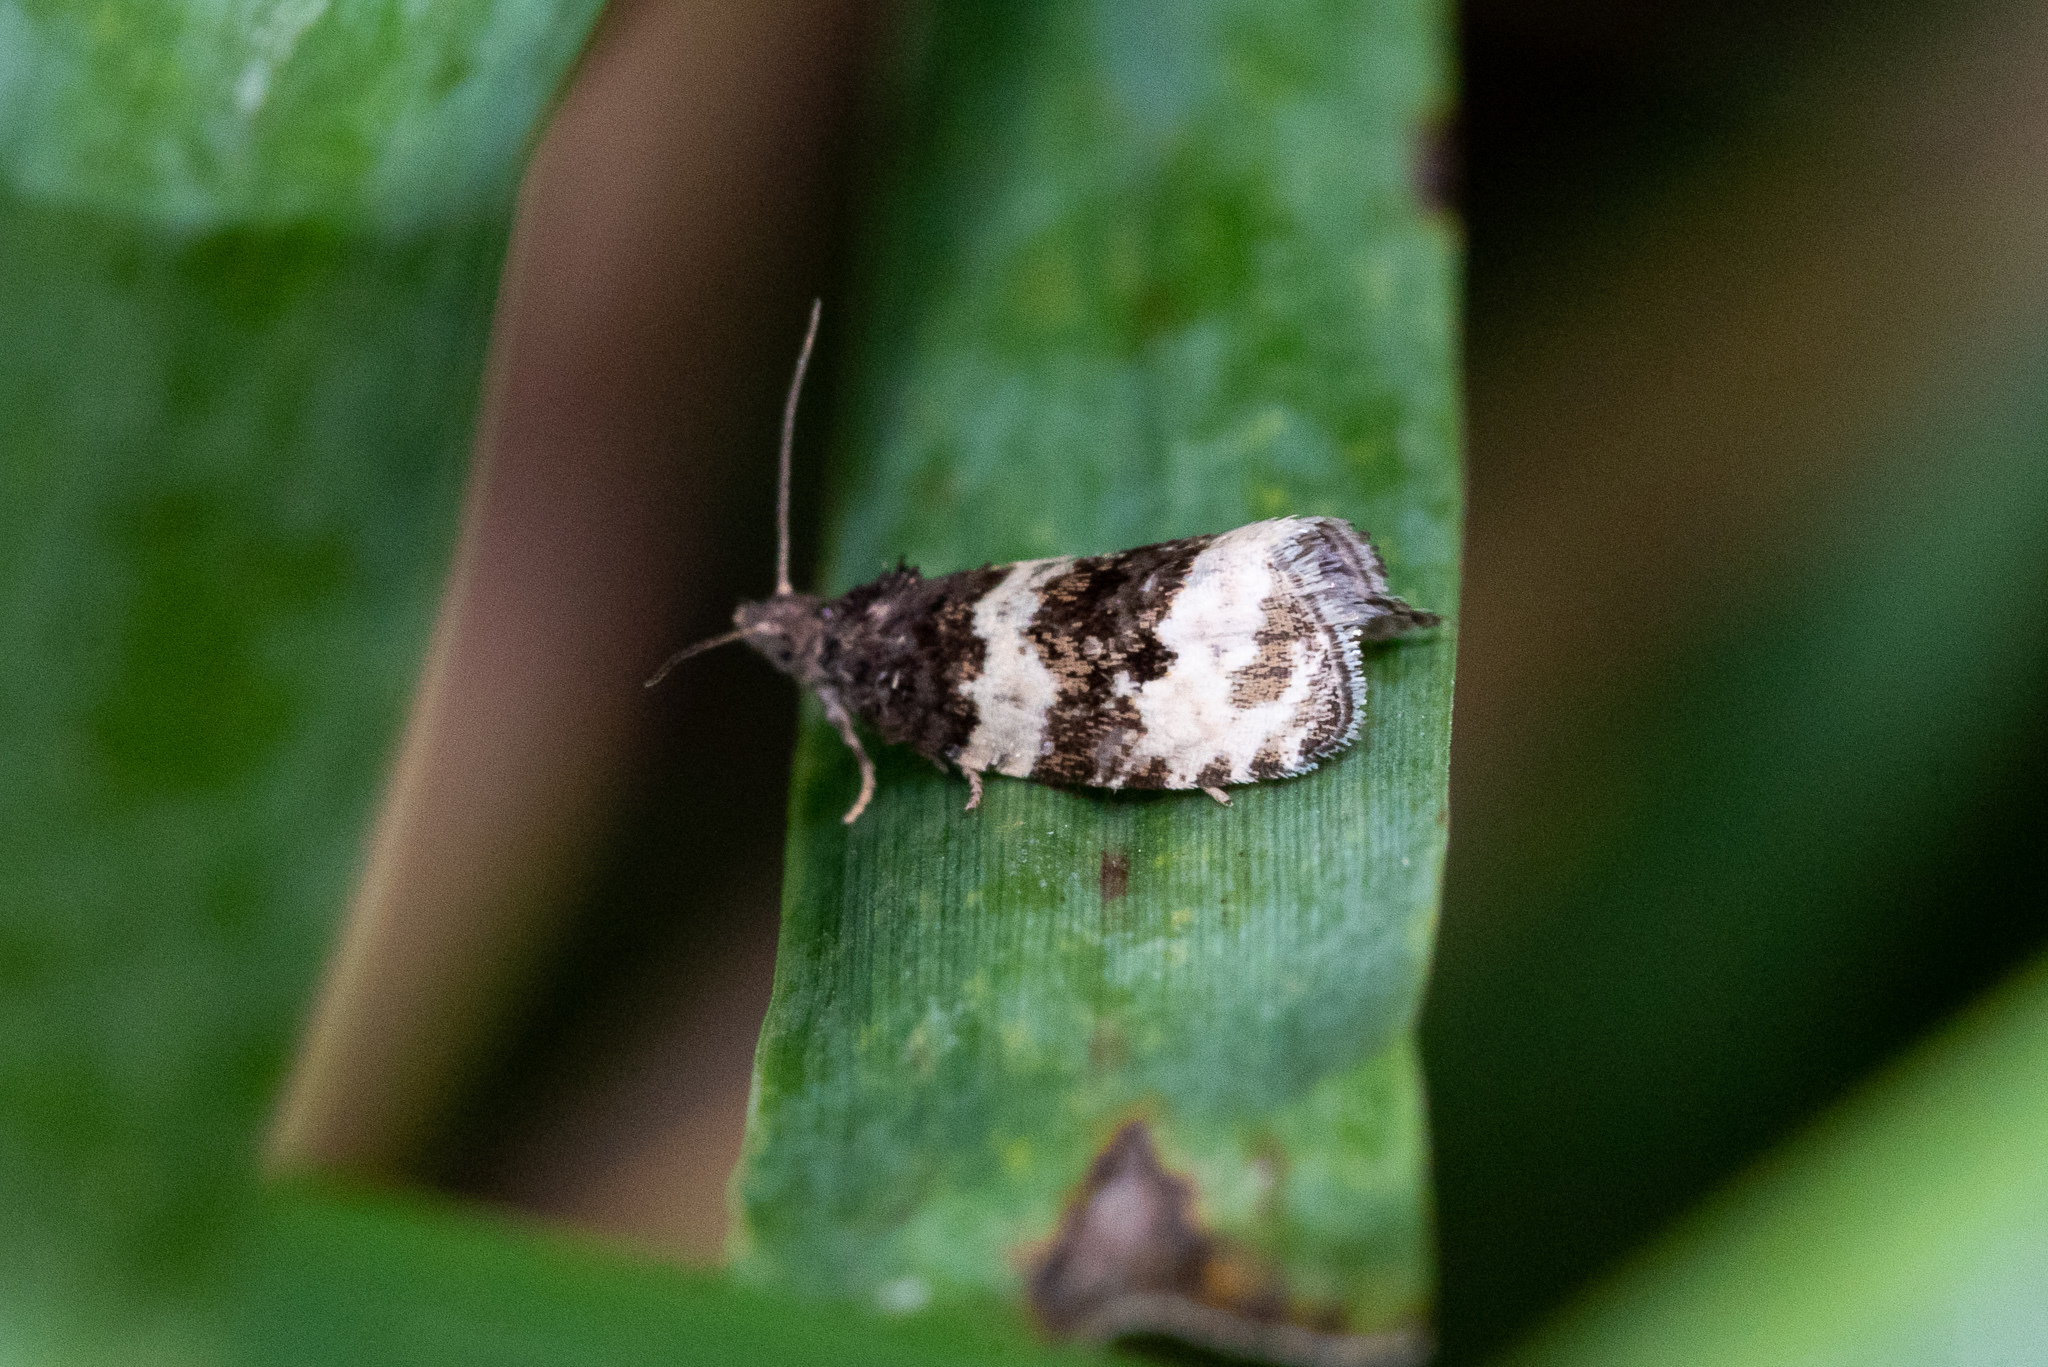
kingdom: Animalia
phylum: Arthropoda
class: Insecta
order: Lepidoptera
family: Tortricidae
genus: Olethreutes
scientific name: Olethreutes bipartitana
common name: Divided olethreutes moth
